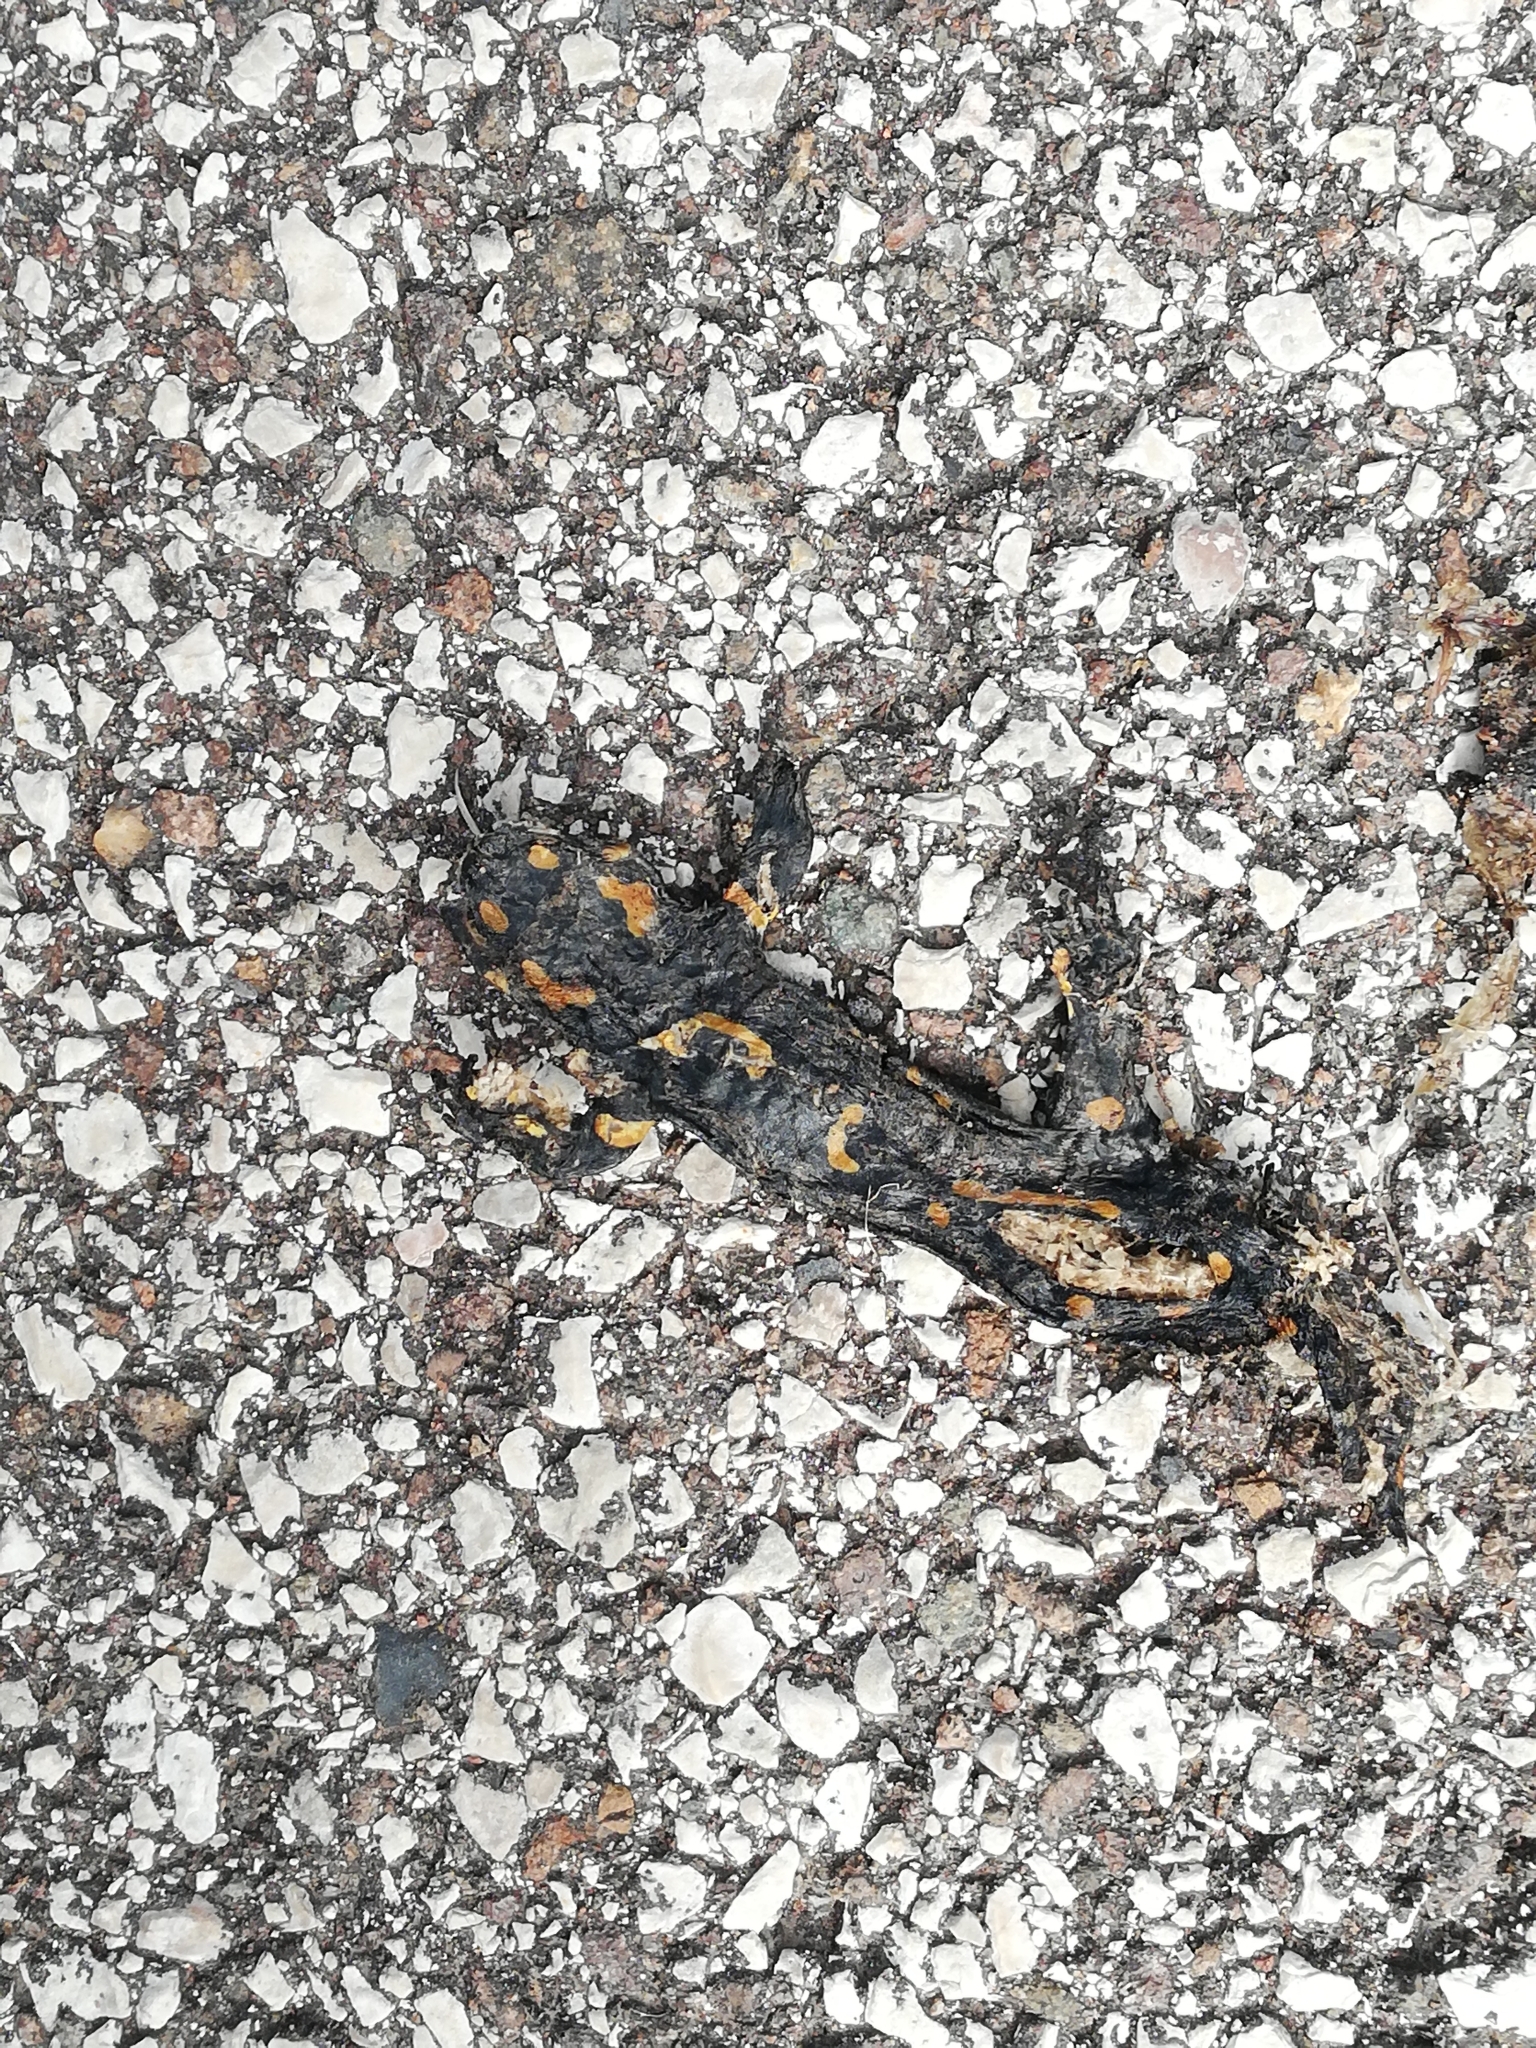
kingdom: Animalia
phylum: Chordata
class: Amphibia
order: Caudata
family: Salamandridae
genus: Salamandra
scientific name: Salamandra salamandra
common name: Fire salamander
